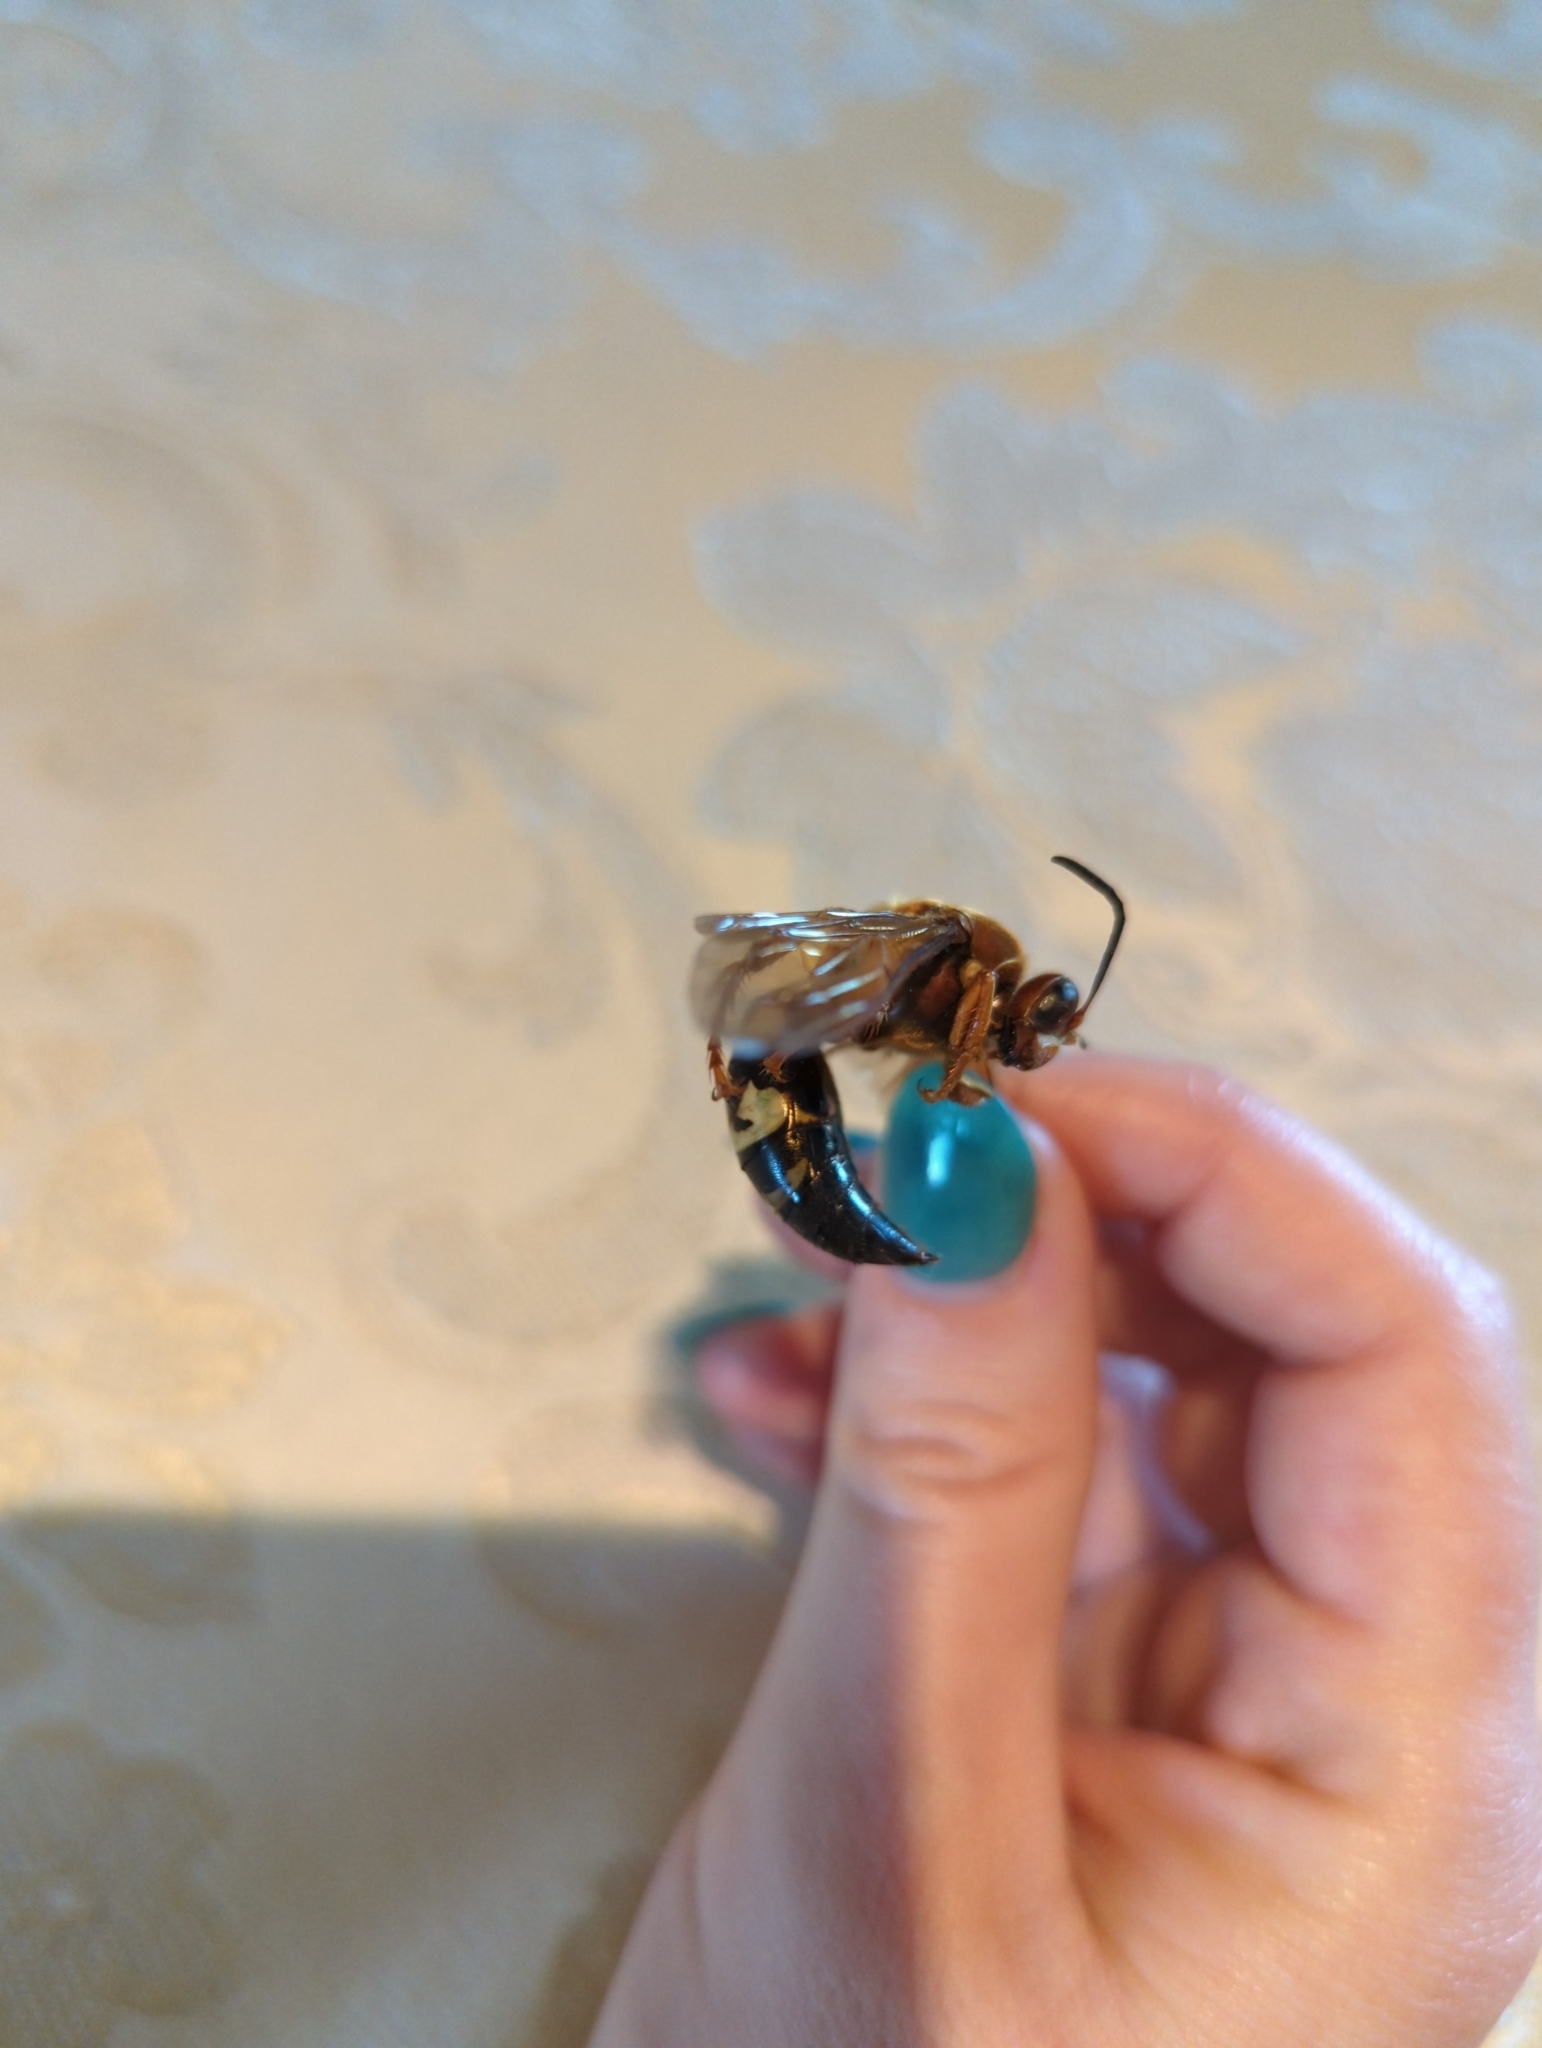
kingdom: Animalia
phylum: Arthropoda
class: Insecta
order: Hymenoptera
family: Crabronidae
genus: Sphecius
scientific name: Sphecius speciosus
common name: Cicada killer
